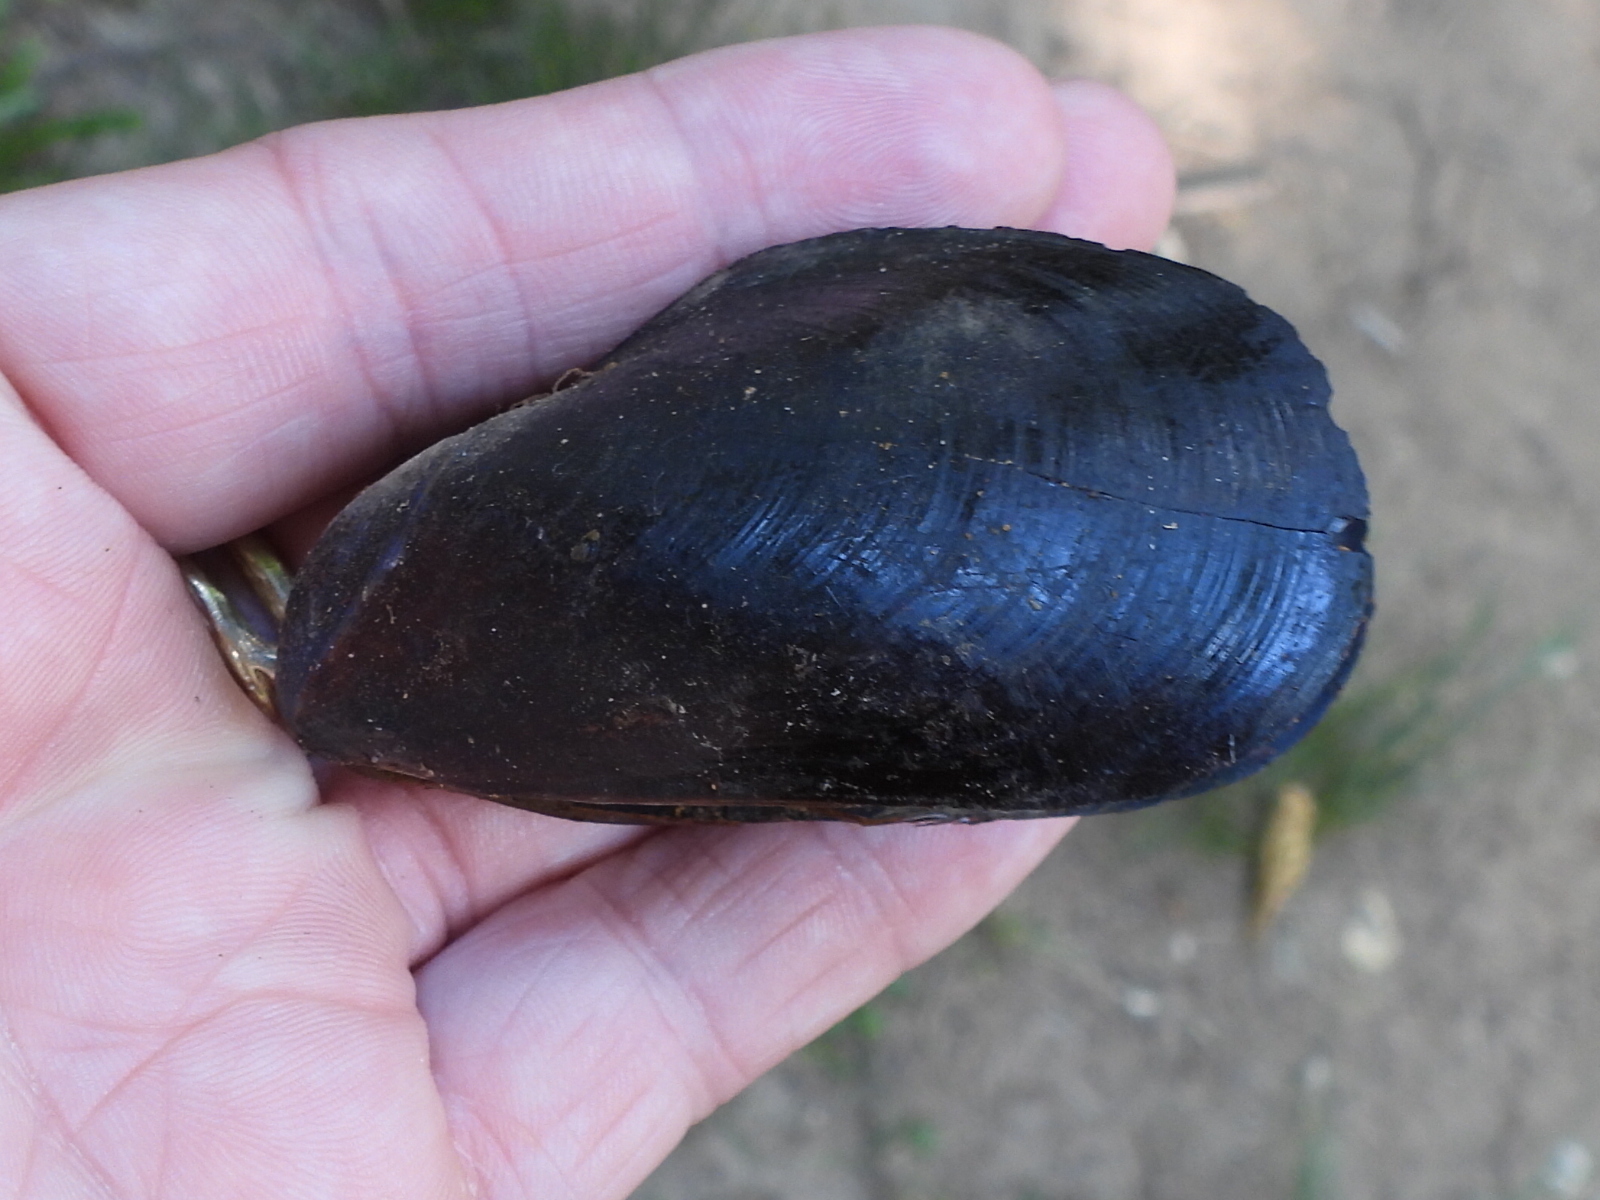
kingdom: Animalia
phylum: Mollusca
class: Bivalvia
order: Mytilida
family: Mytilidae
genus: Mytilus
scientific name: Mytilus edulis
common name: Blue mussel
